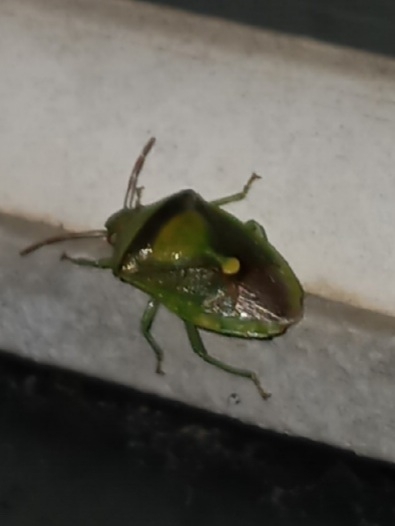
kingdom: Animalia
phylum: Arthropoda
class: Insecta
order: Hemiptera
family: Pentatomidae
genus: Banasa
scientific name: Banasa dimidiata
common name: Green burgundy stink bug
